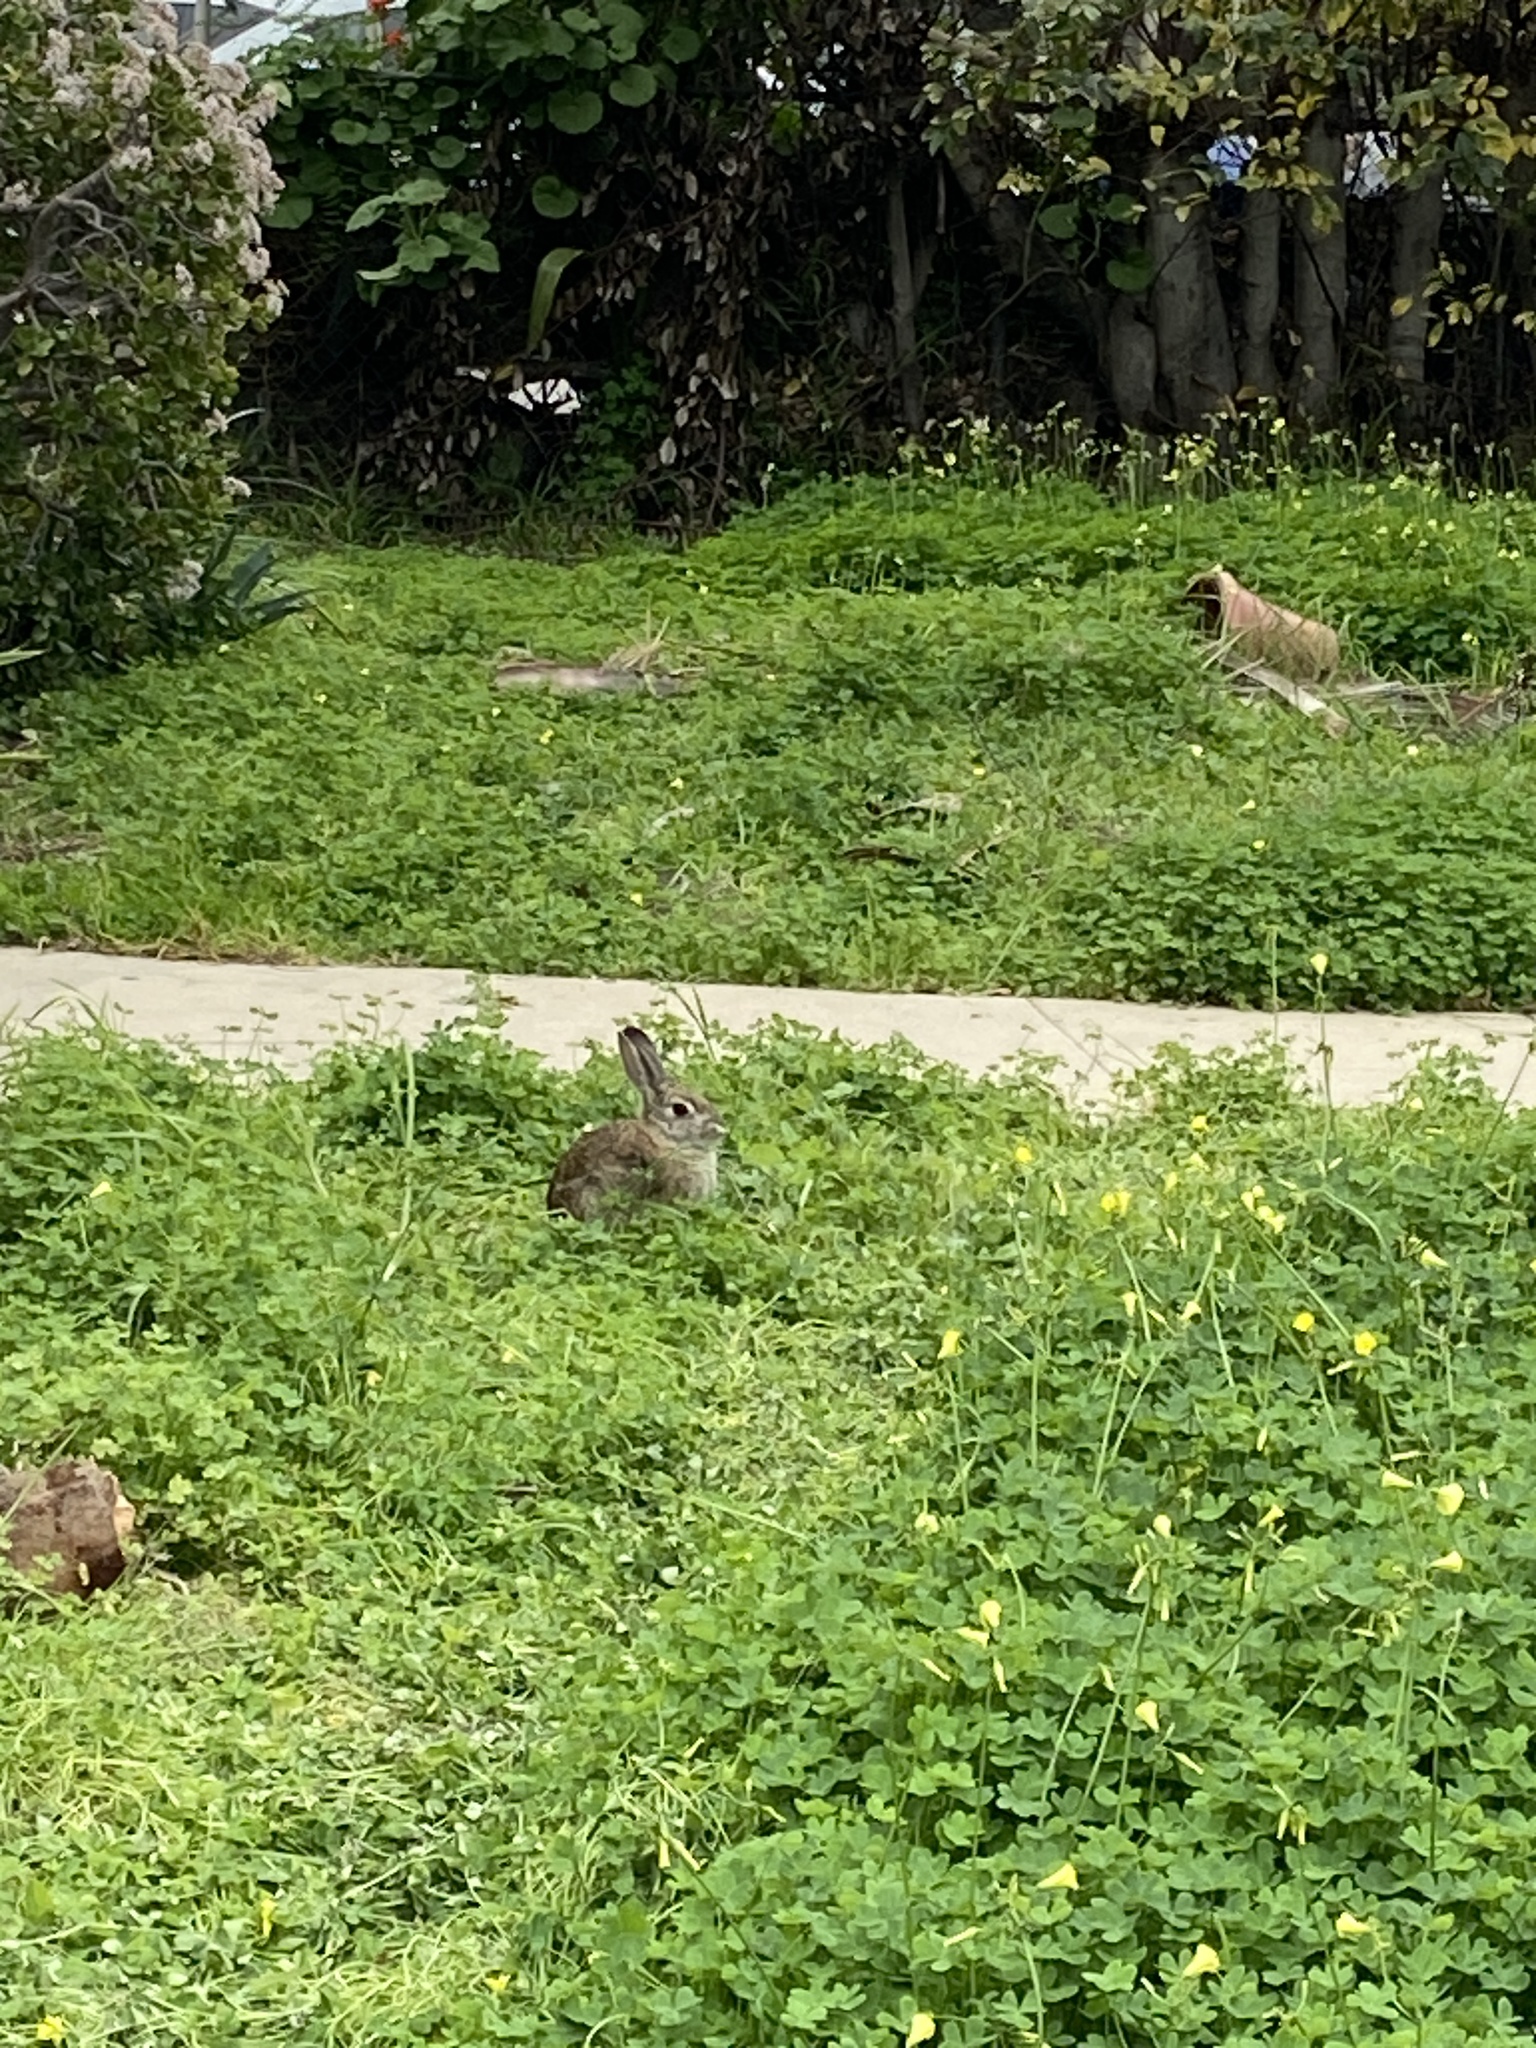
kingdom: Animalia
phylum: Chordata
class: Mammalia
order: Lagomorpha
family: Leporidae
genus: Sylvilagus
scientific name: Sylvilagus audubonii
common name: Desert cottontail
